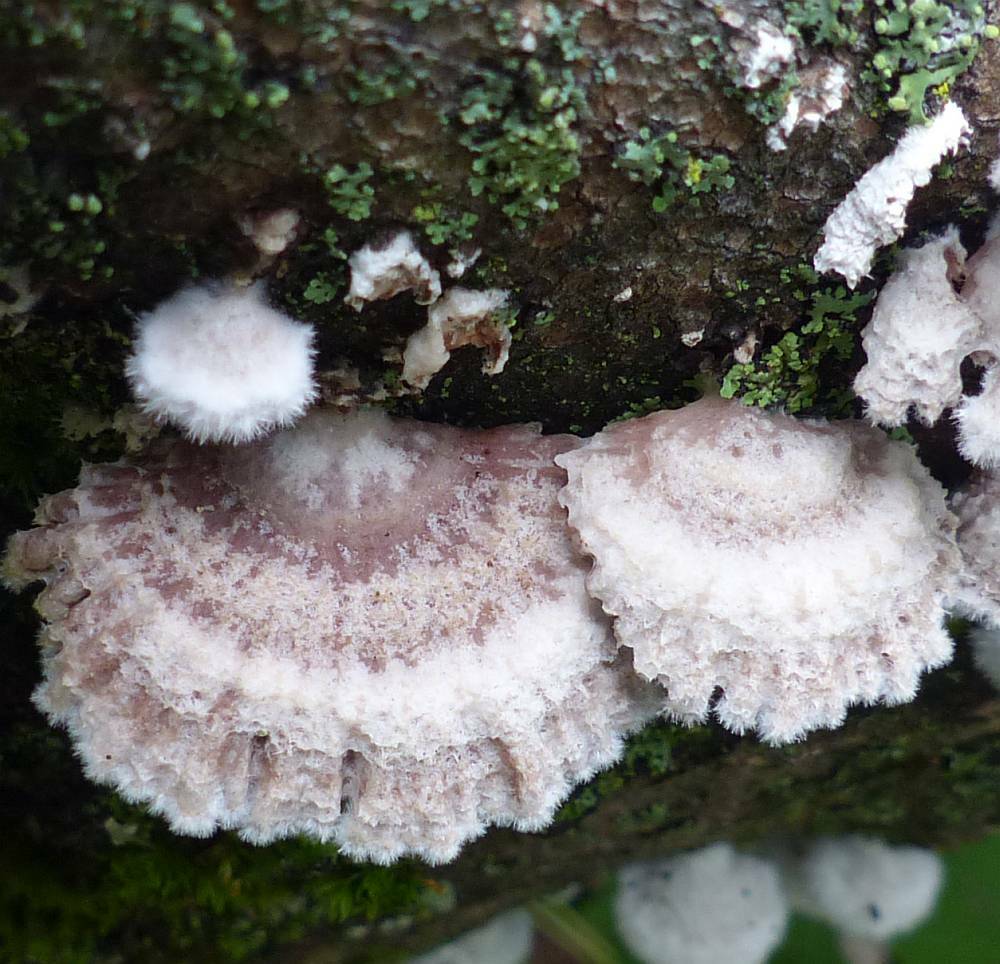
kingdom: Fungi
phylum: Basidiomycota
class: Agaricomycetes
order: Agaricales
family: Schizophyllaceae
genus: Schizophyllum
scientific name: Schizophyllum commune
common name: Common porecrust
